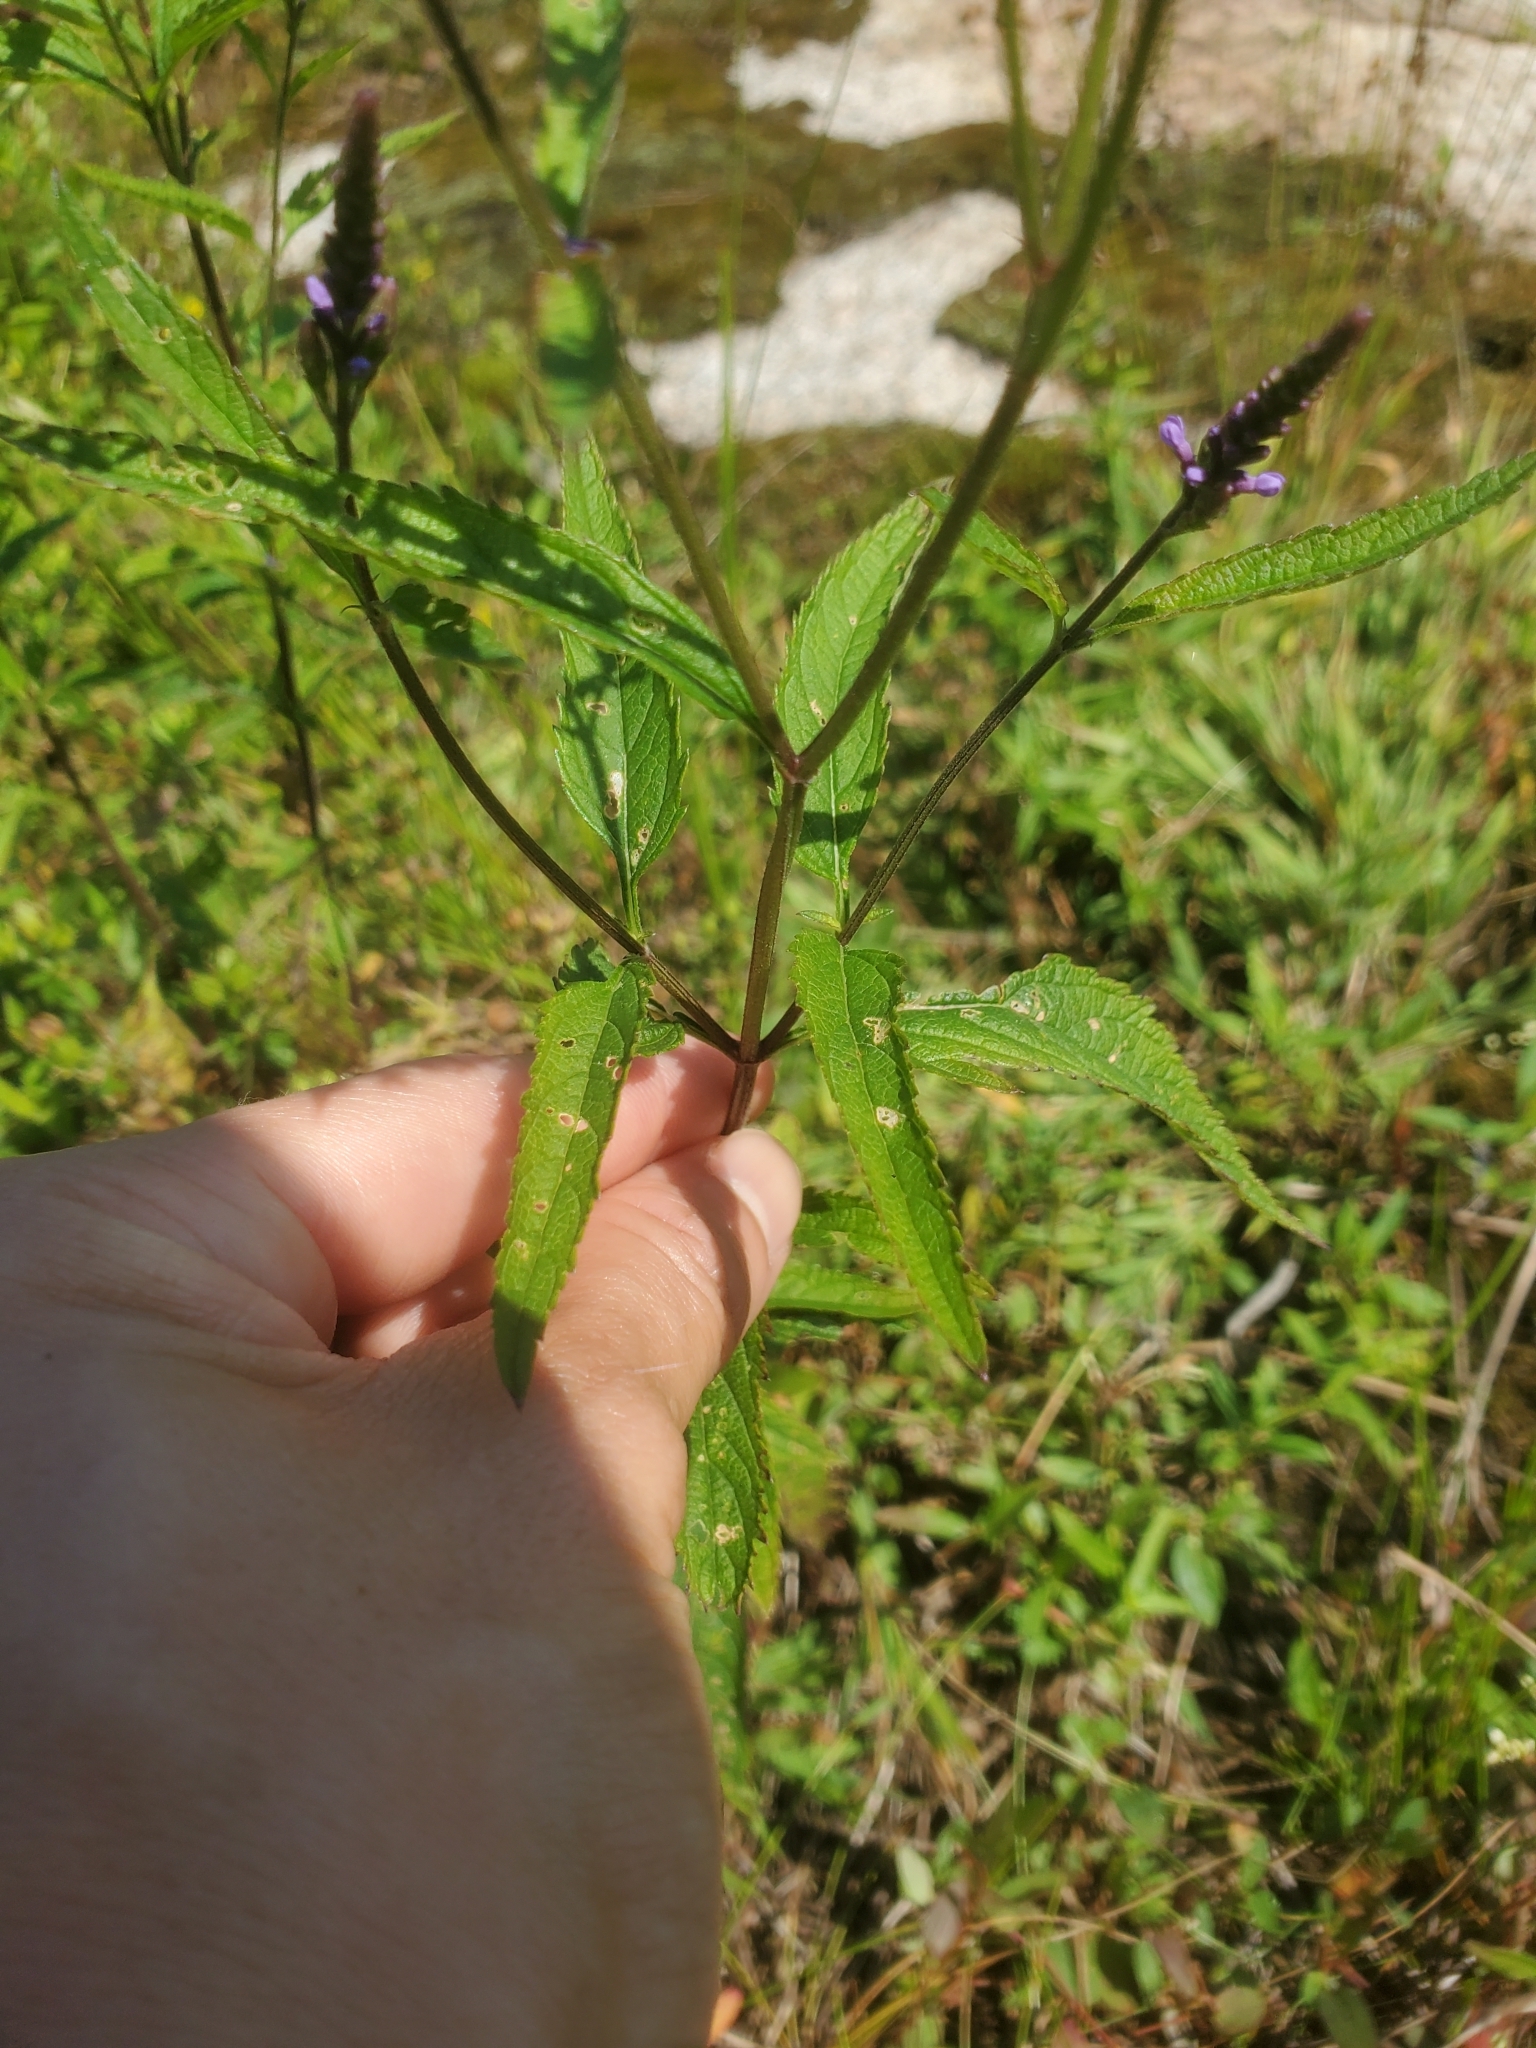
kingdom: Plantae
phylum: Tracheophyta
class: Magnoliopsida
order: Lamiales
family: Verbenaceae
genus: Verbena
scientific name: Verbena hastata
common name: American blue vervain
